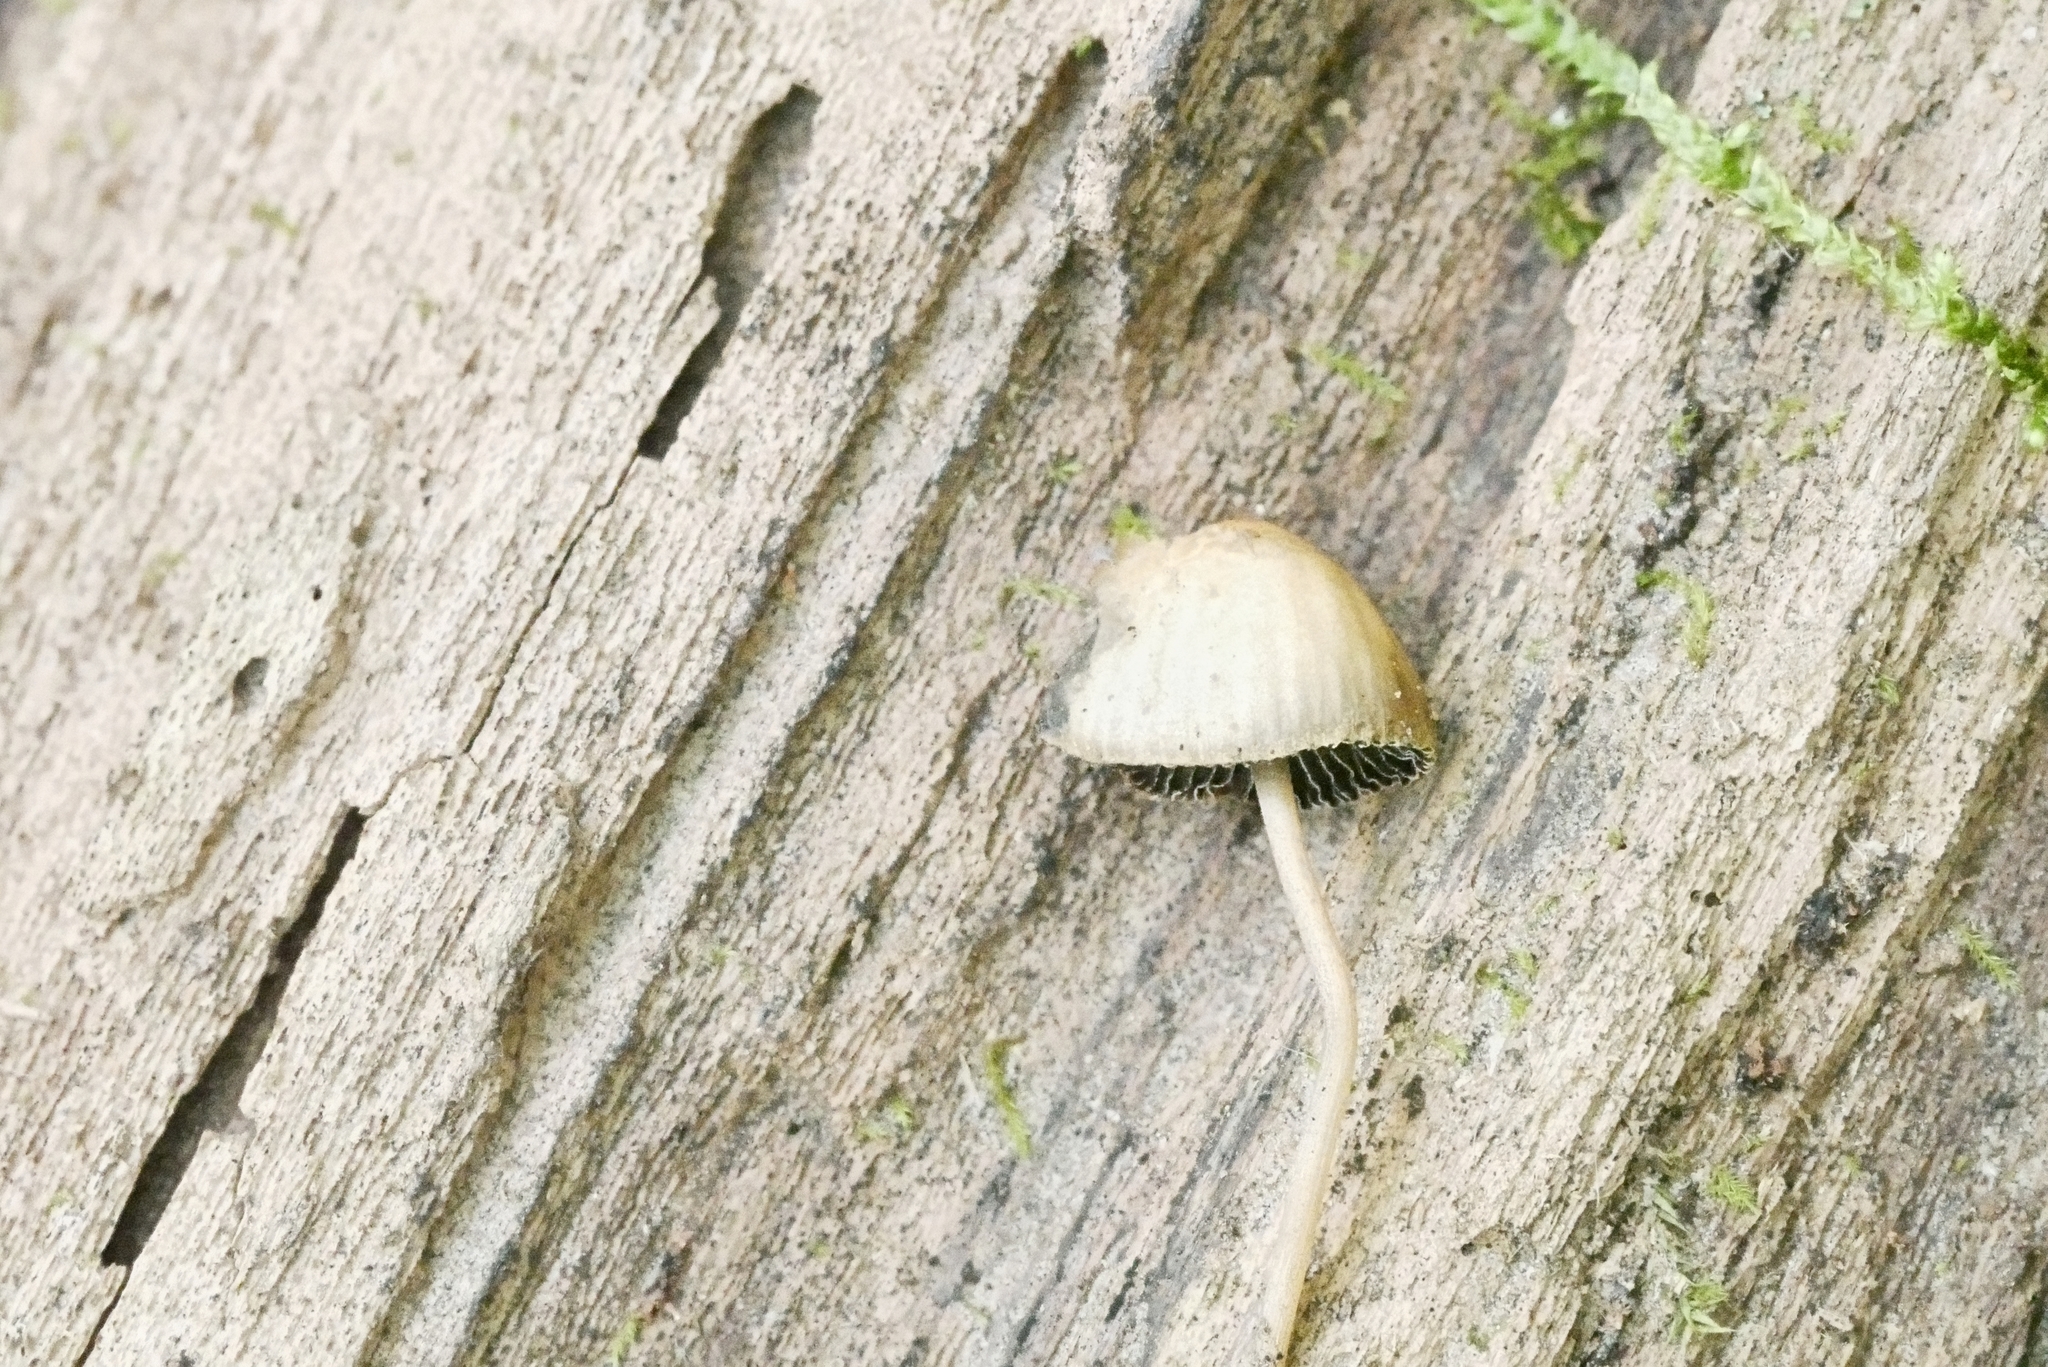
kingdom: Fungi
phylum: Basidiomycota
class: Agaricomycetes
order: Agaricales
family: Psathyrellaceae
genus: Psathyrella
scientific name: Psathyrella amarescens
